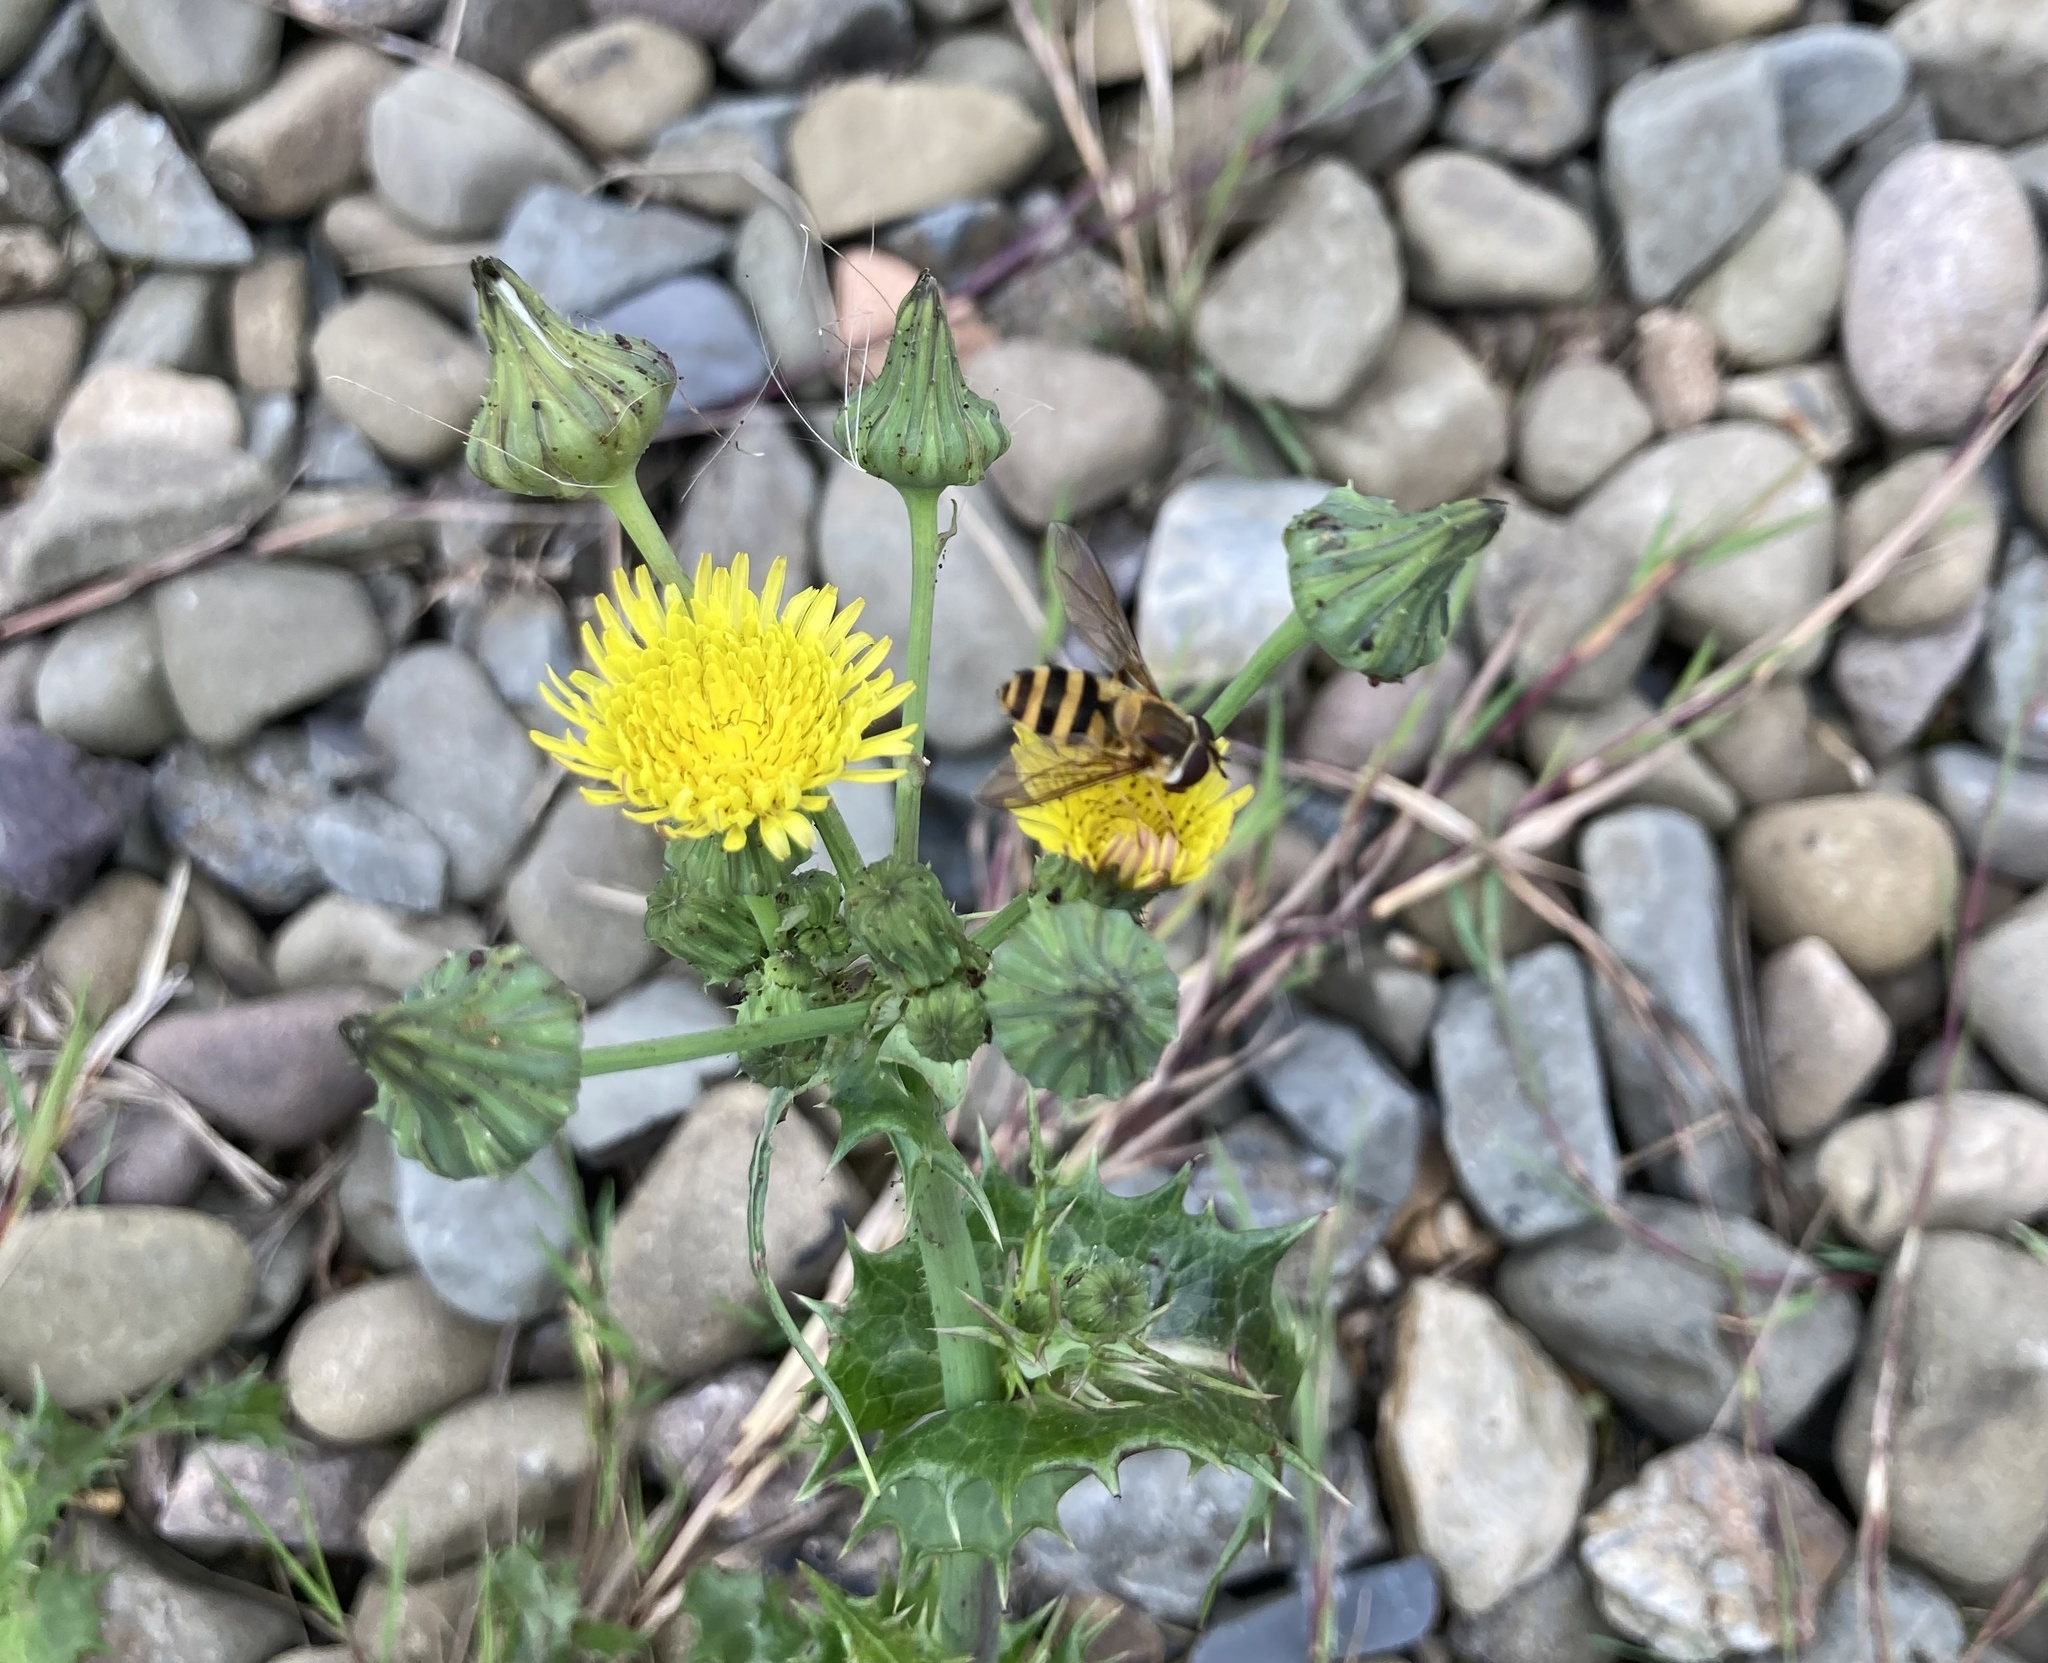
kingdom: Animalia
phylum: Arthropoda
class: Insecta
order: Diptera
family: Syrphidae
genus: Epistrophe
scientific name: Epistrophe grossulariae
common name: Black-horned smoothtail
